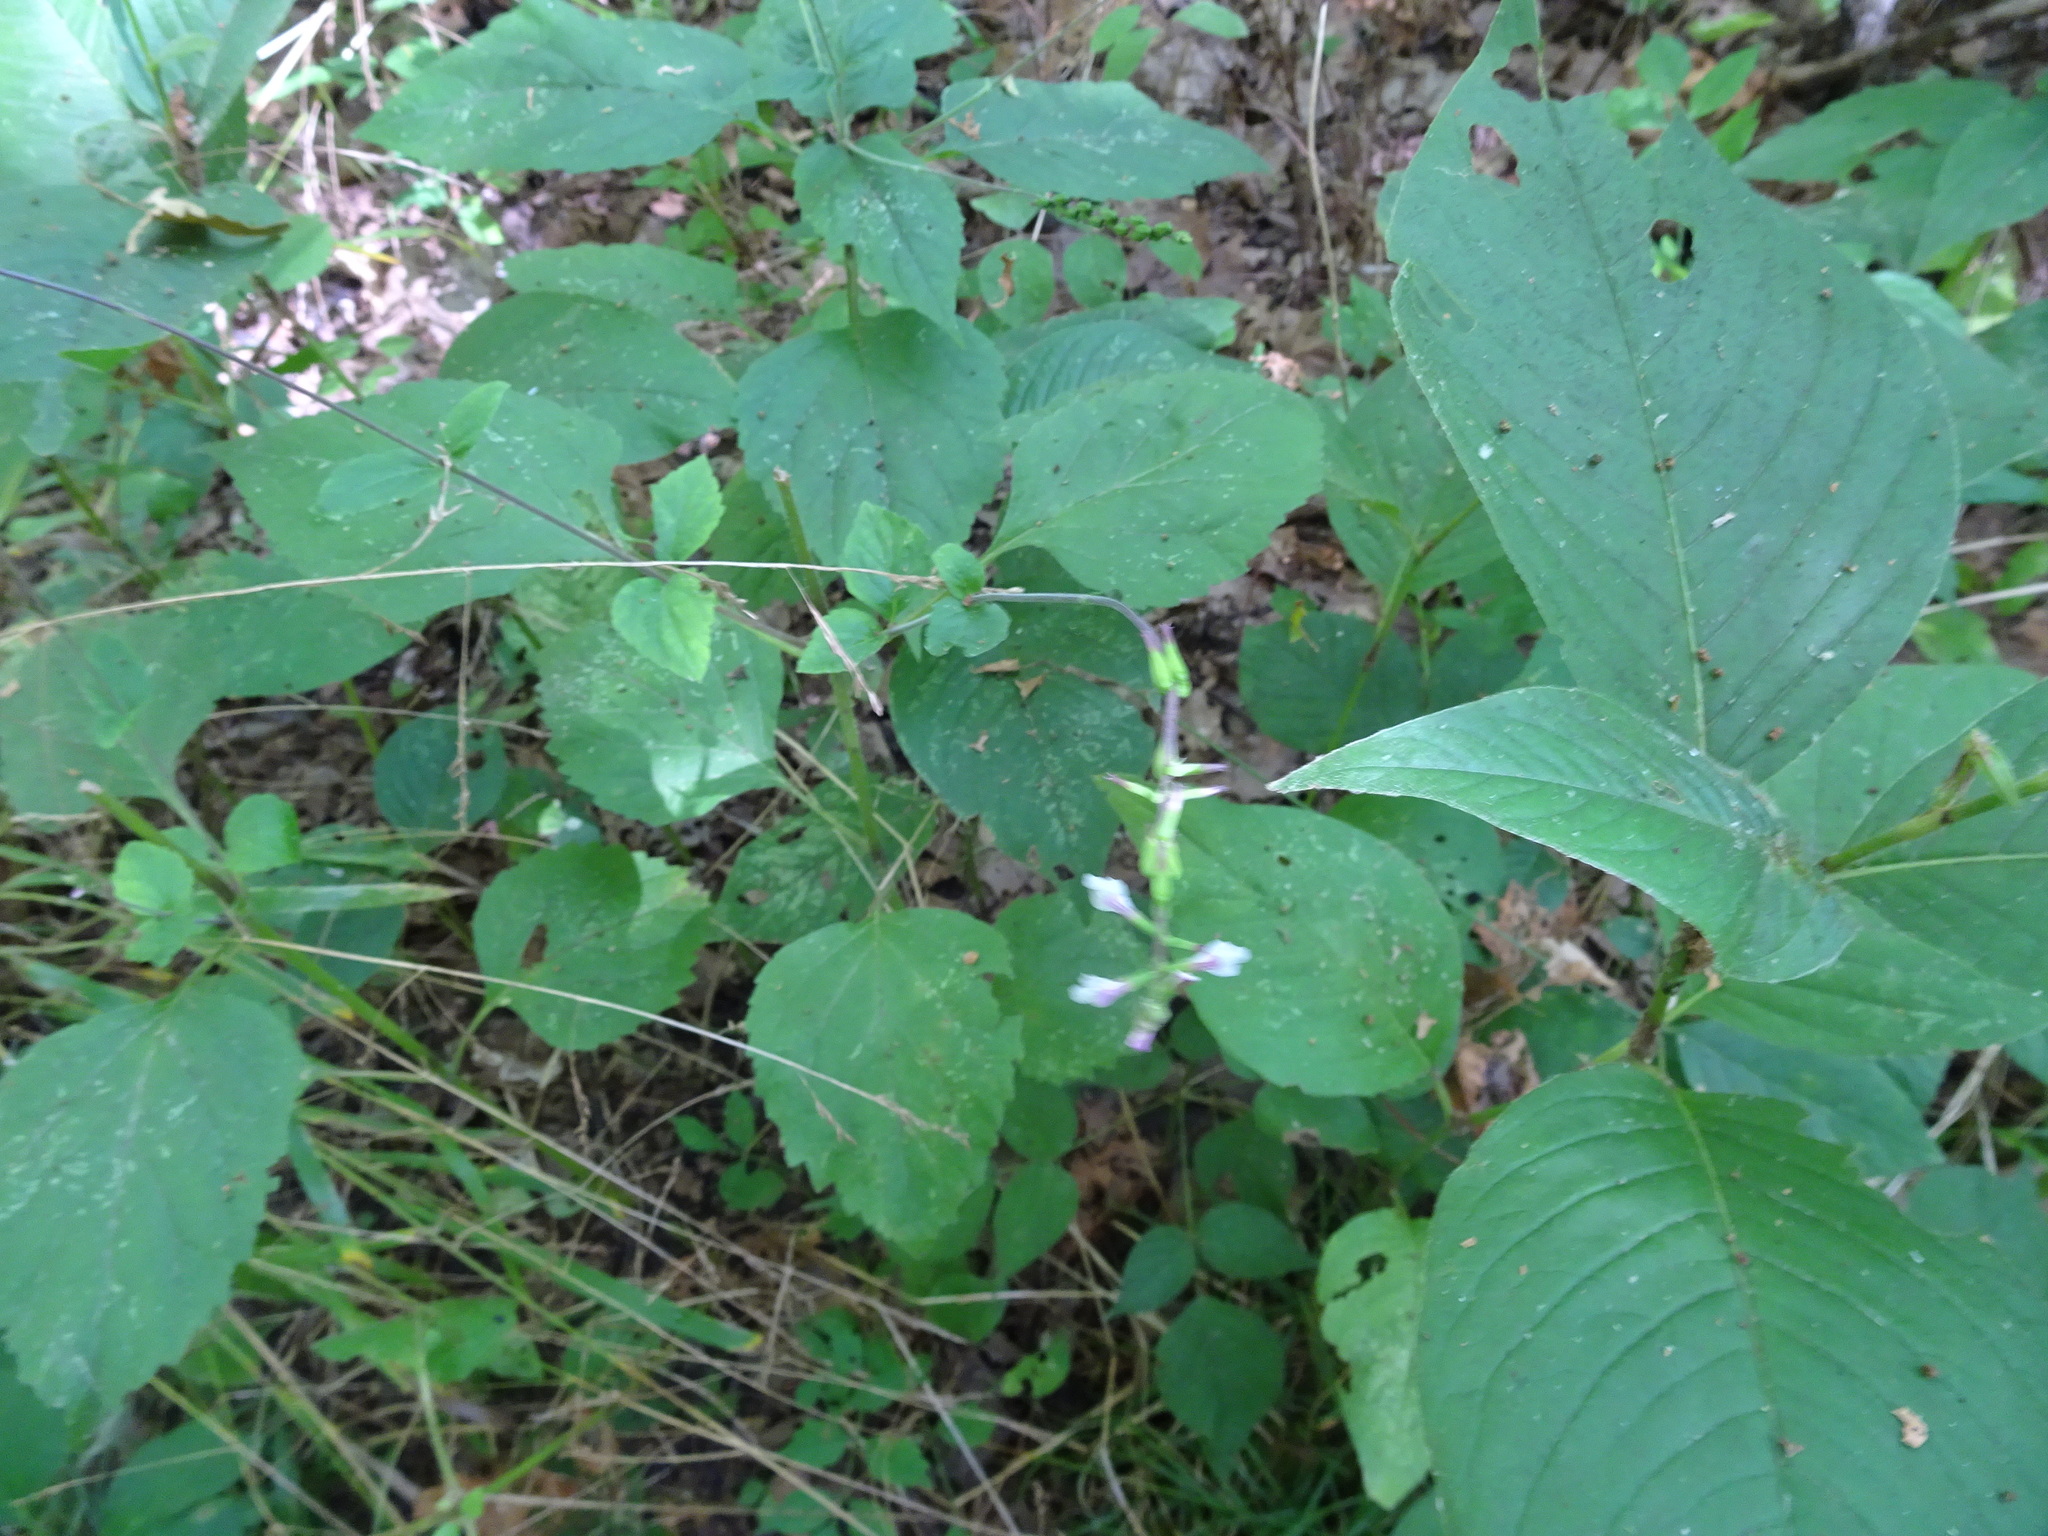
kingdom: Plantae
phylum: Tracheophyta
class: Magnoliopsida
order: Lamiales
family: Phrymaceae
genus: Phryma
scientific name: Phryma leptostachya
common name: American lopseed
